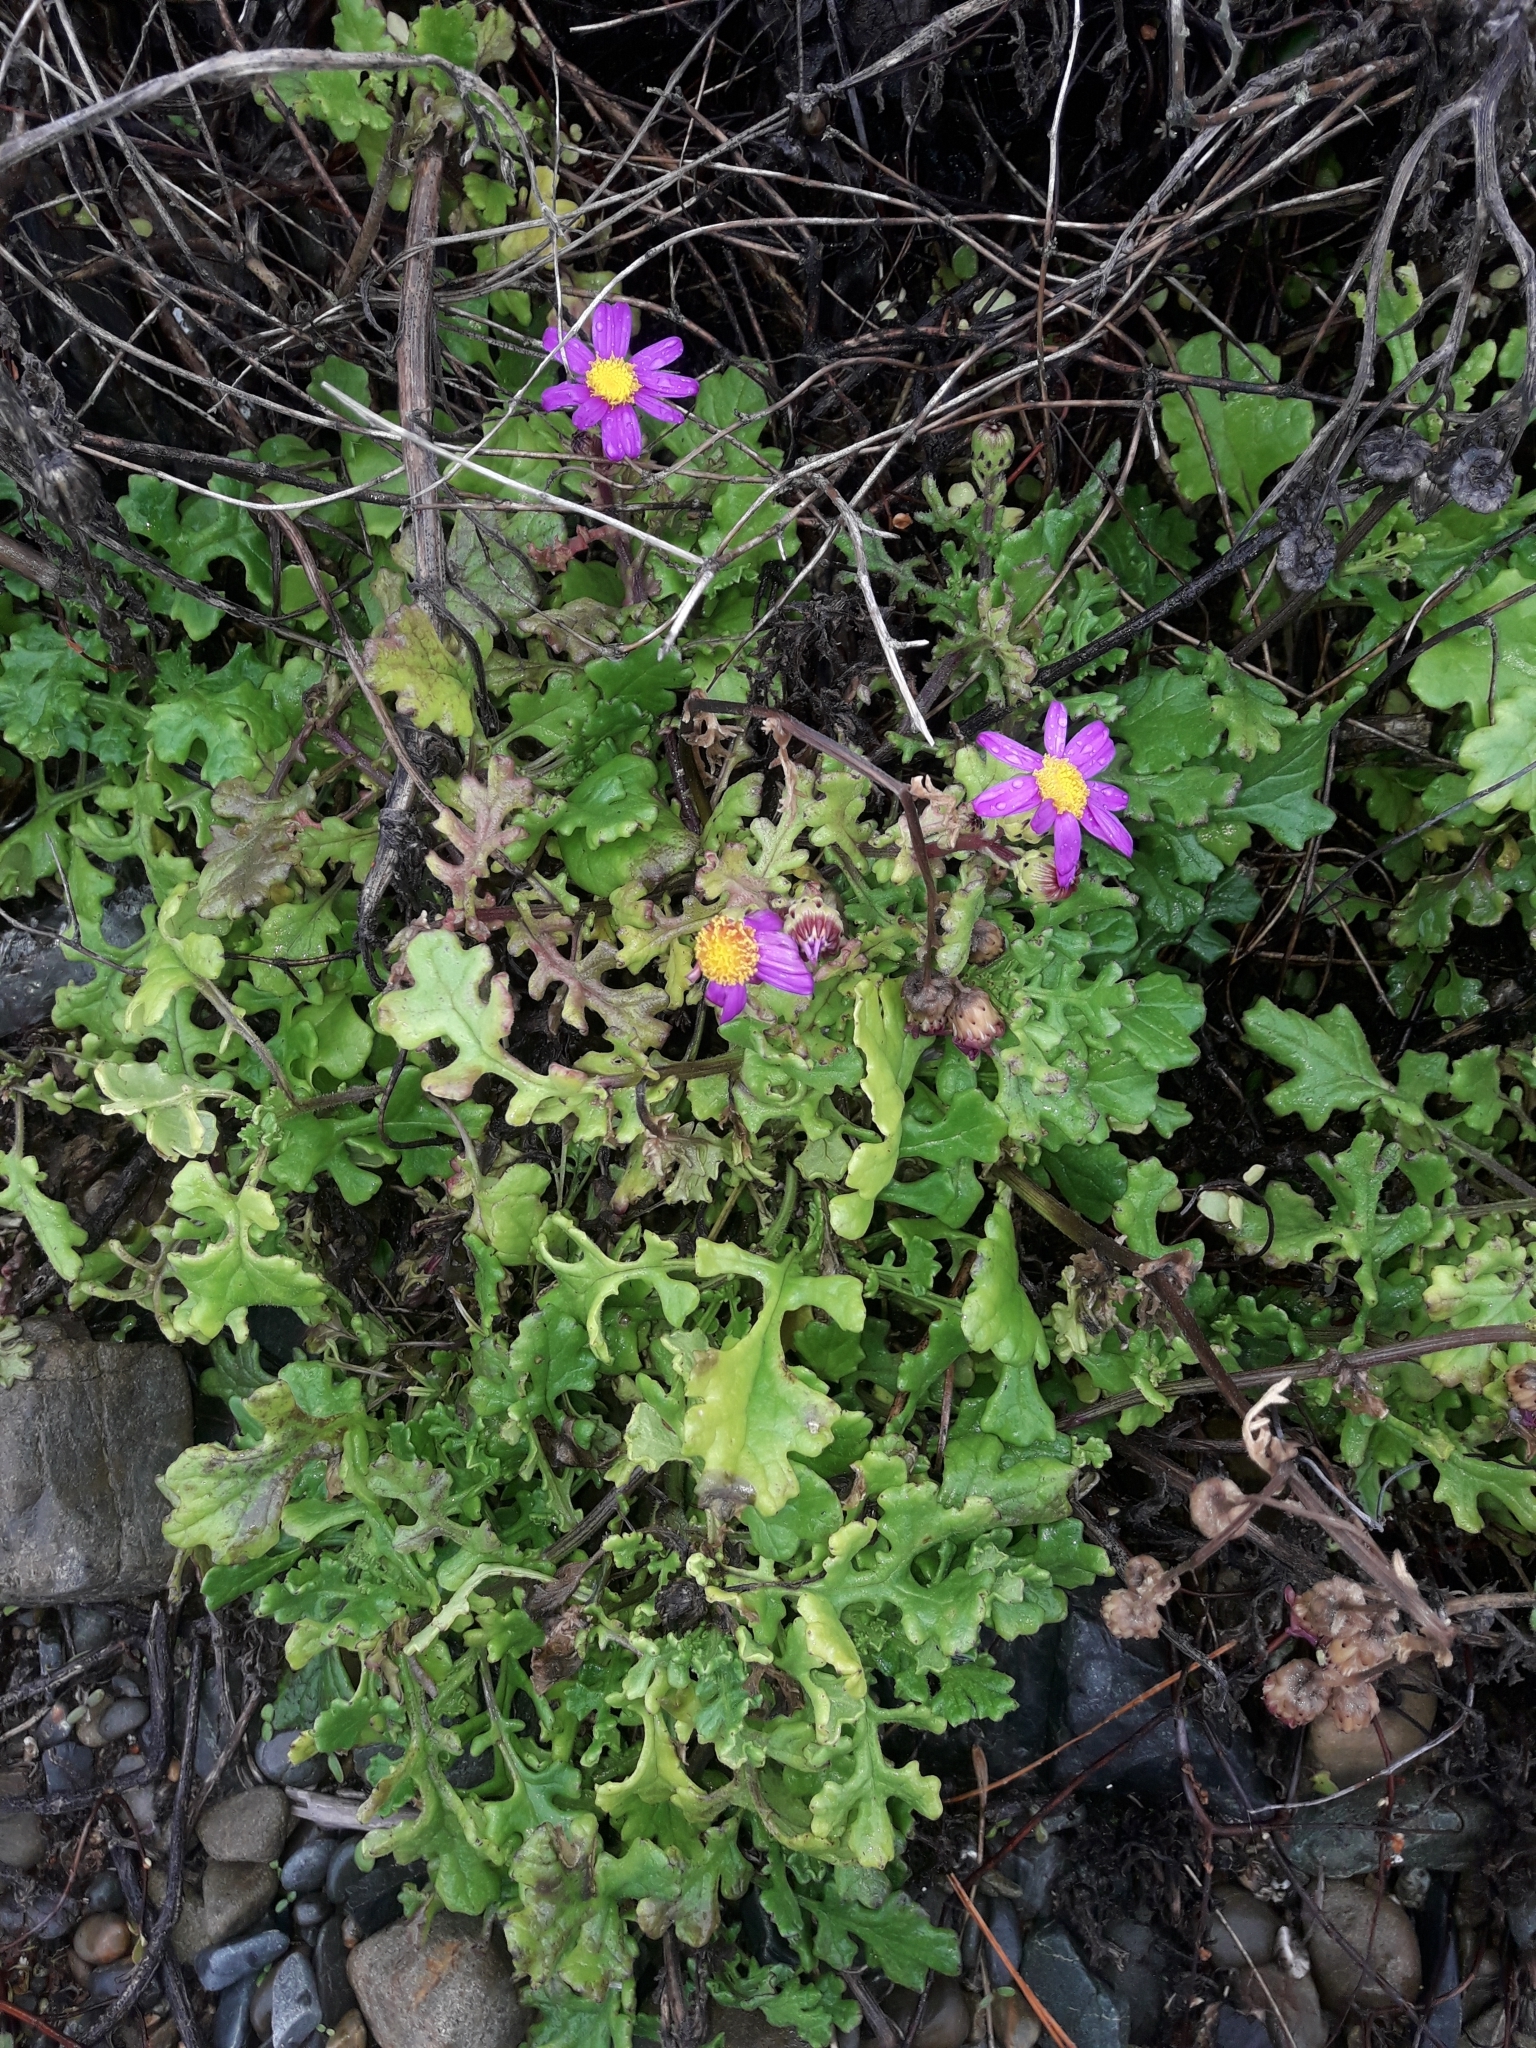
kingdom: Plantae
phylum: Tracheophyta
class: Magnoliopsida
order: Asterales
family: Asteraceae
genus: Senecio
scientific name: Senecio elegans
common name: Purple groundsel
